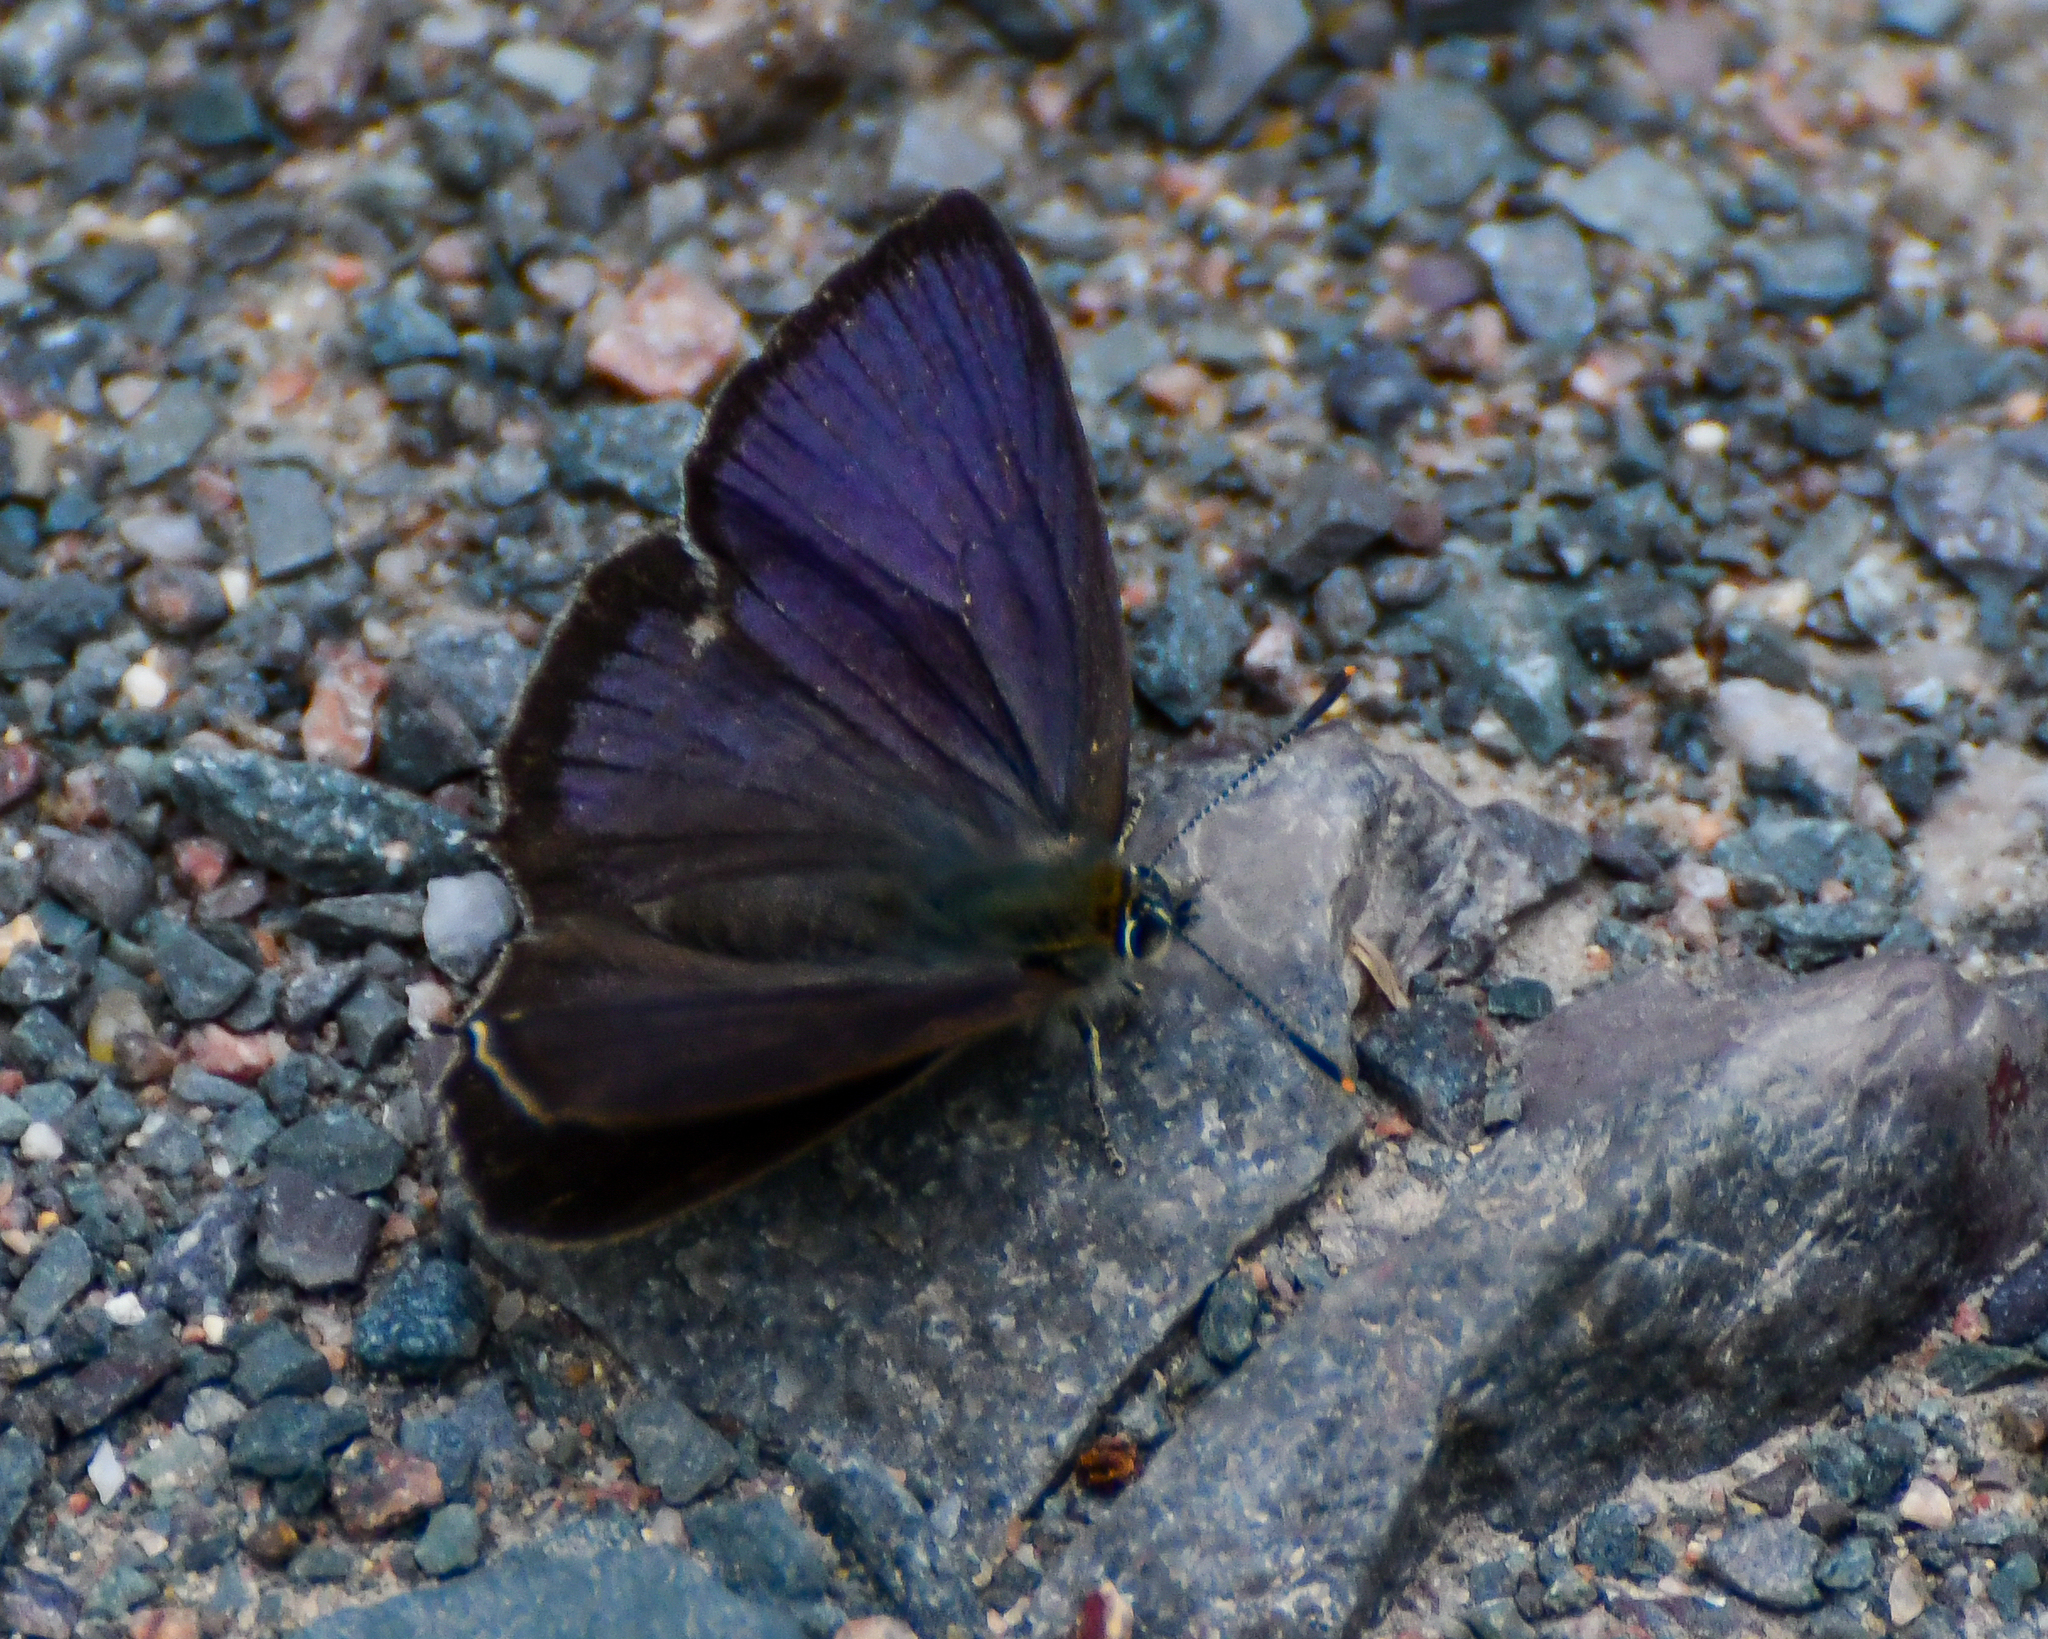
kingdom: Animalia
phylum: Arthropoda
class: Insecta
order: Lepidoptera
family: Lycaenidae
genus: Quercusia
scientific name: Quercusia quercus
